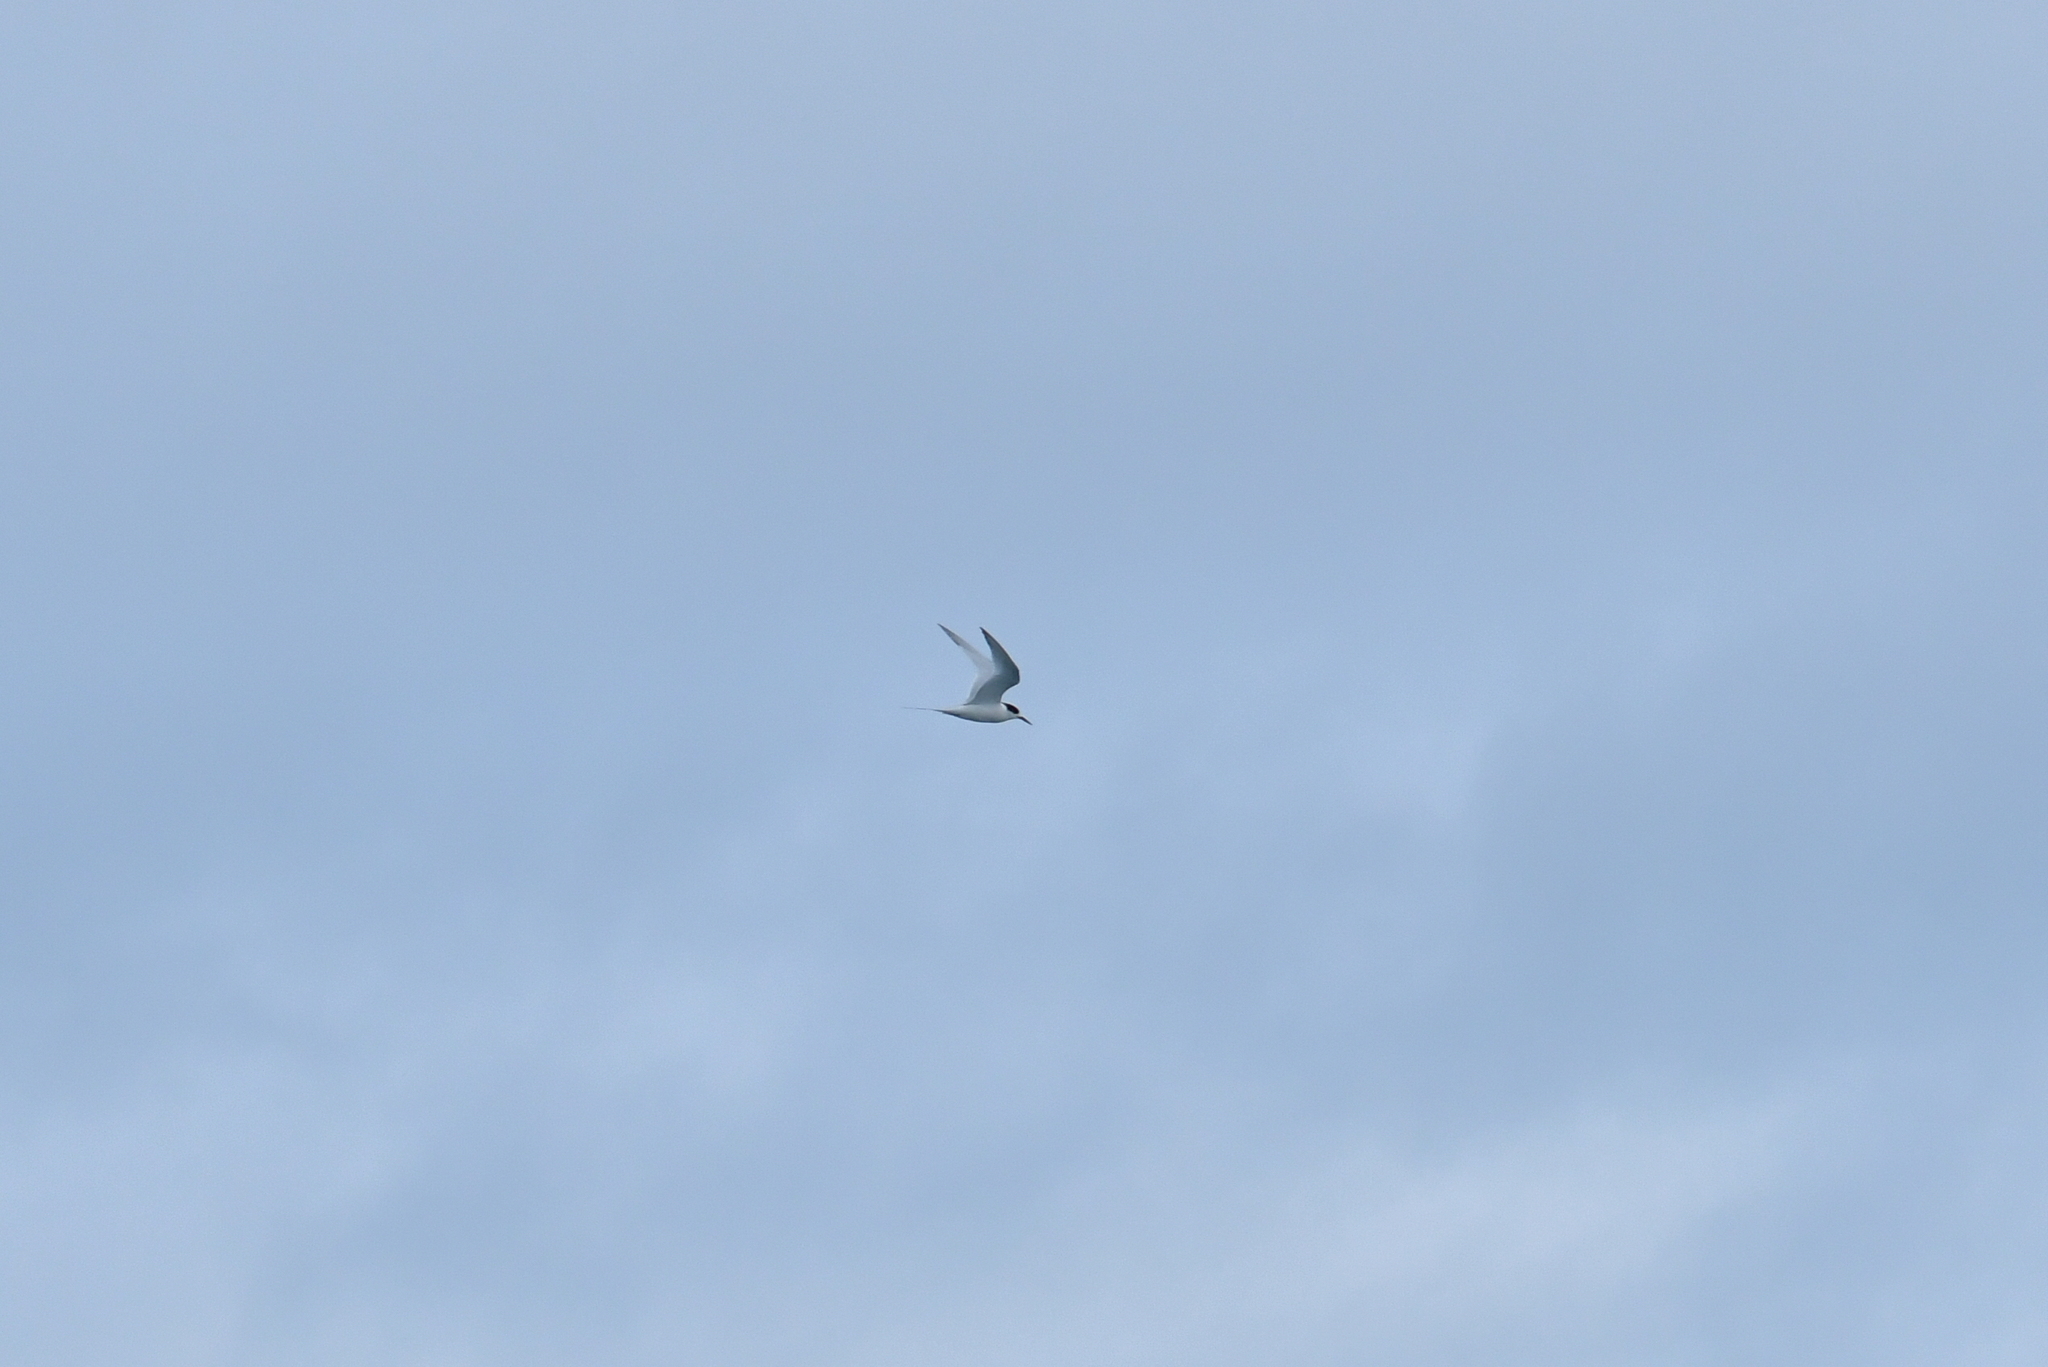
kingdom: Animalia
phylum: Chordata
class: Aves
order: Charadriiformes
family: Laridae
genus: Sterna
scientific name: Sterna striata
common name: White-fronted tern
